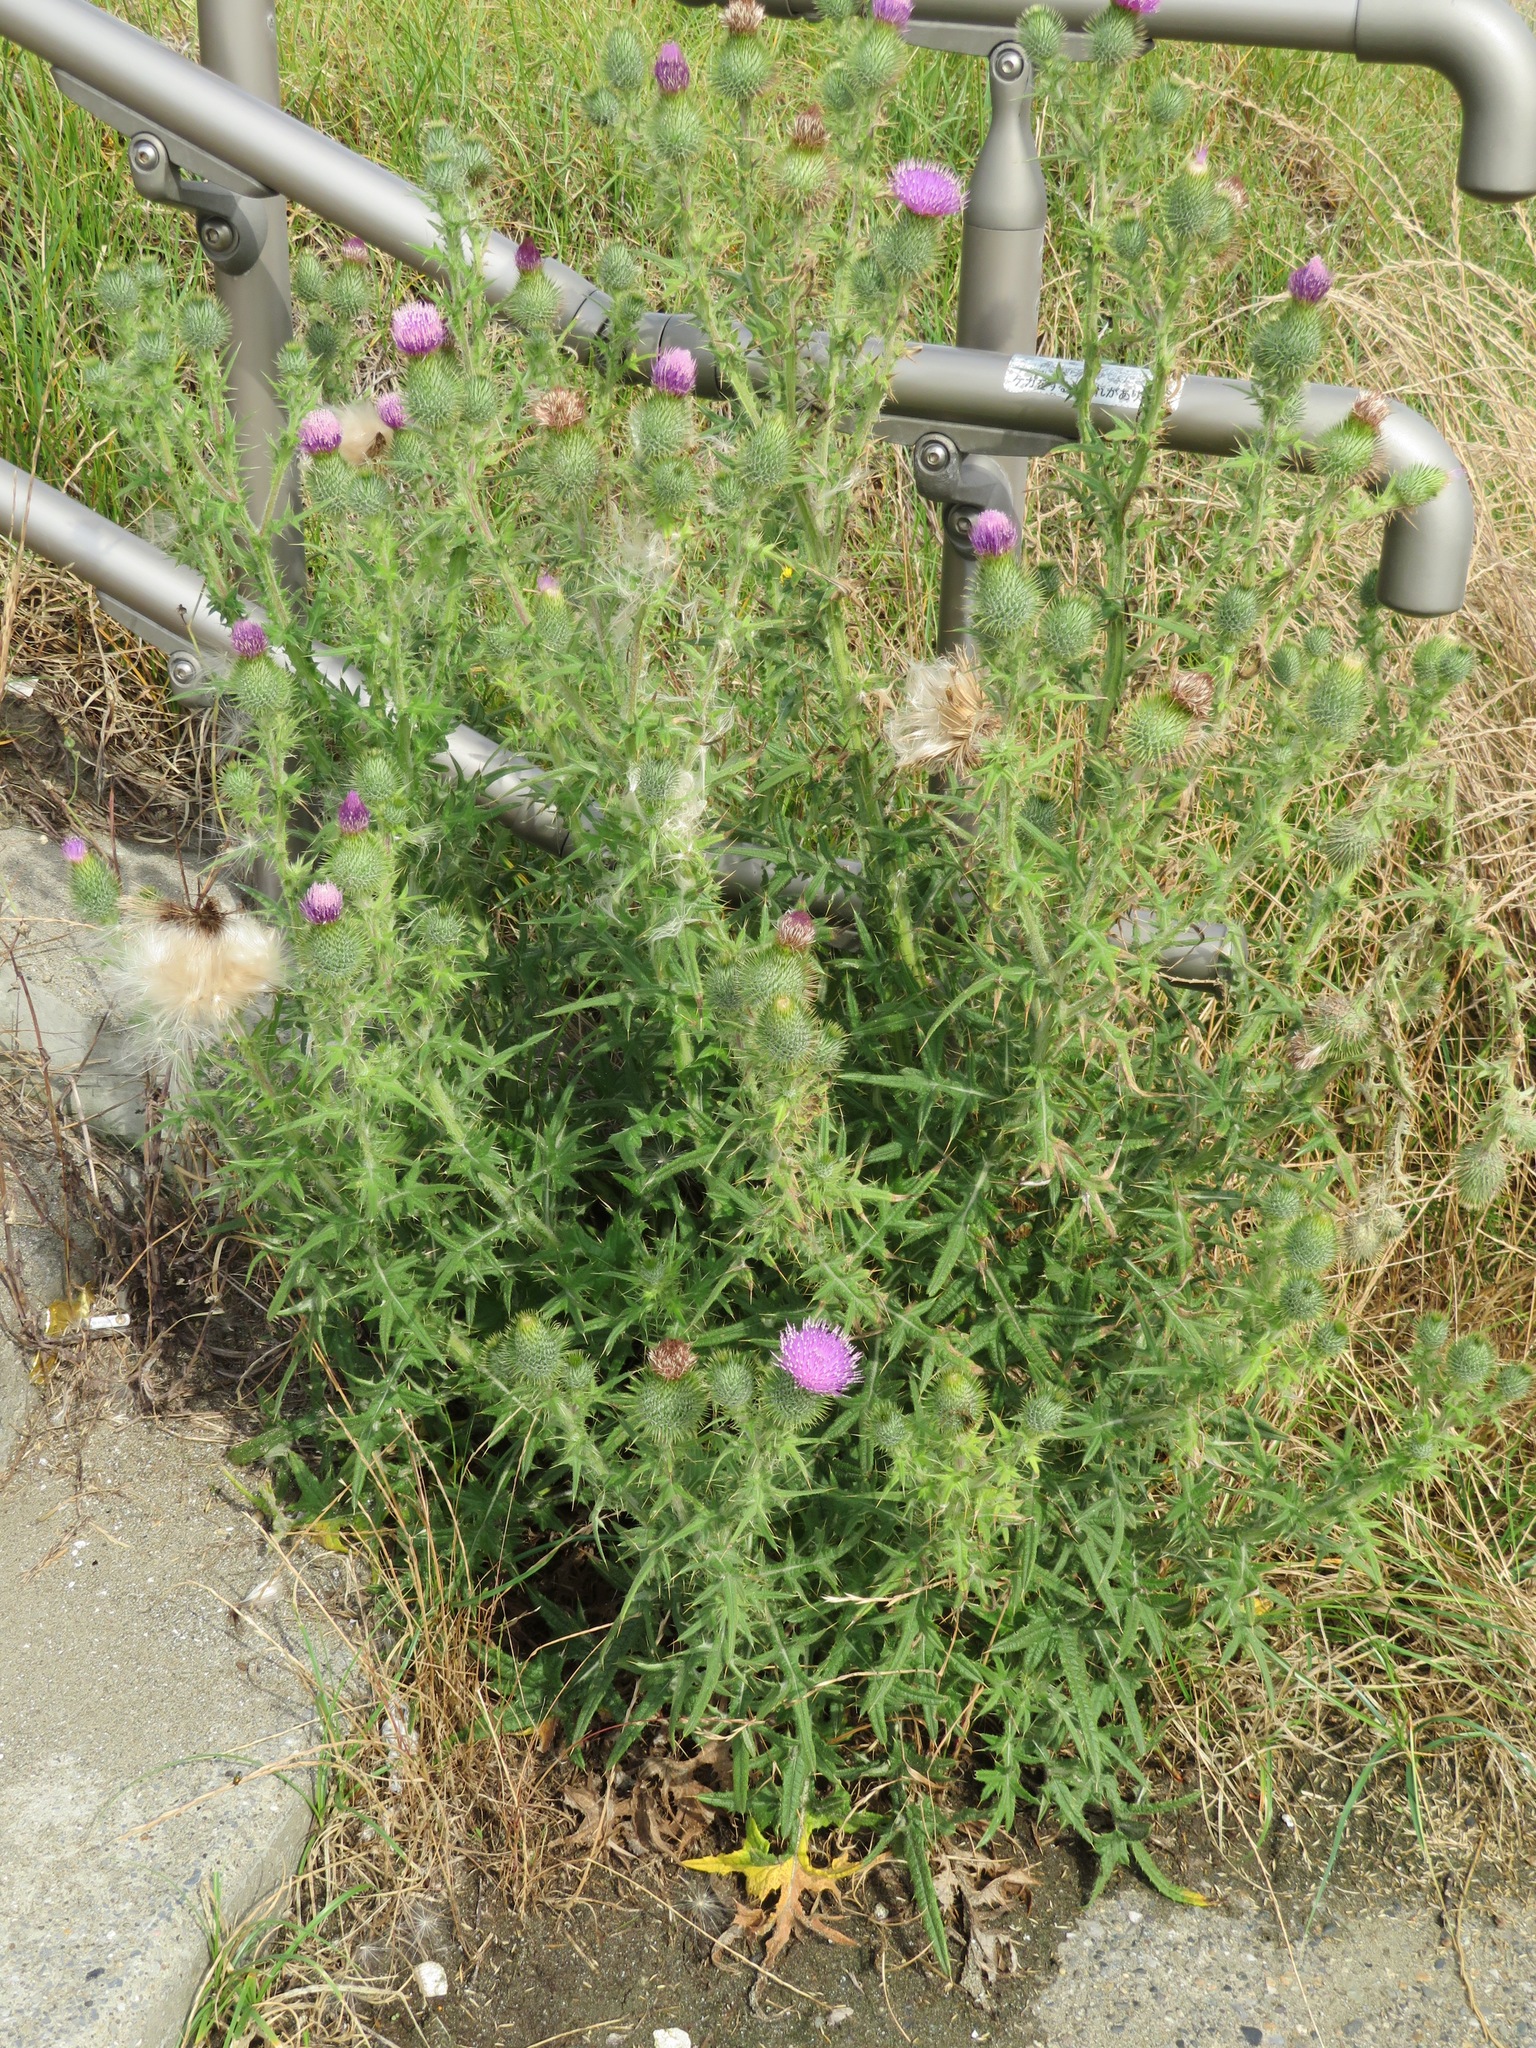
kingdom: Plantae
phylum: Tracheophyta
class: Magnoliopsida
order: Asterales
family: Asteraceae
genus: Cirsium
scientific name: Cirsium vulgare
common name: Bull thistle
